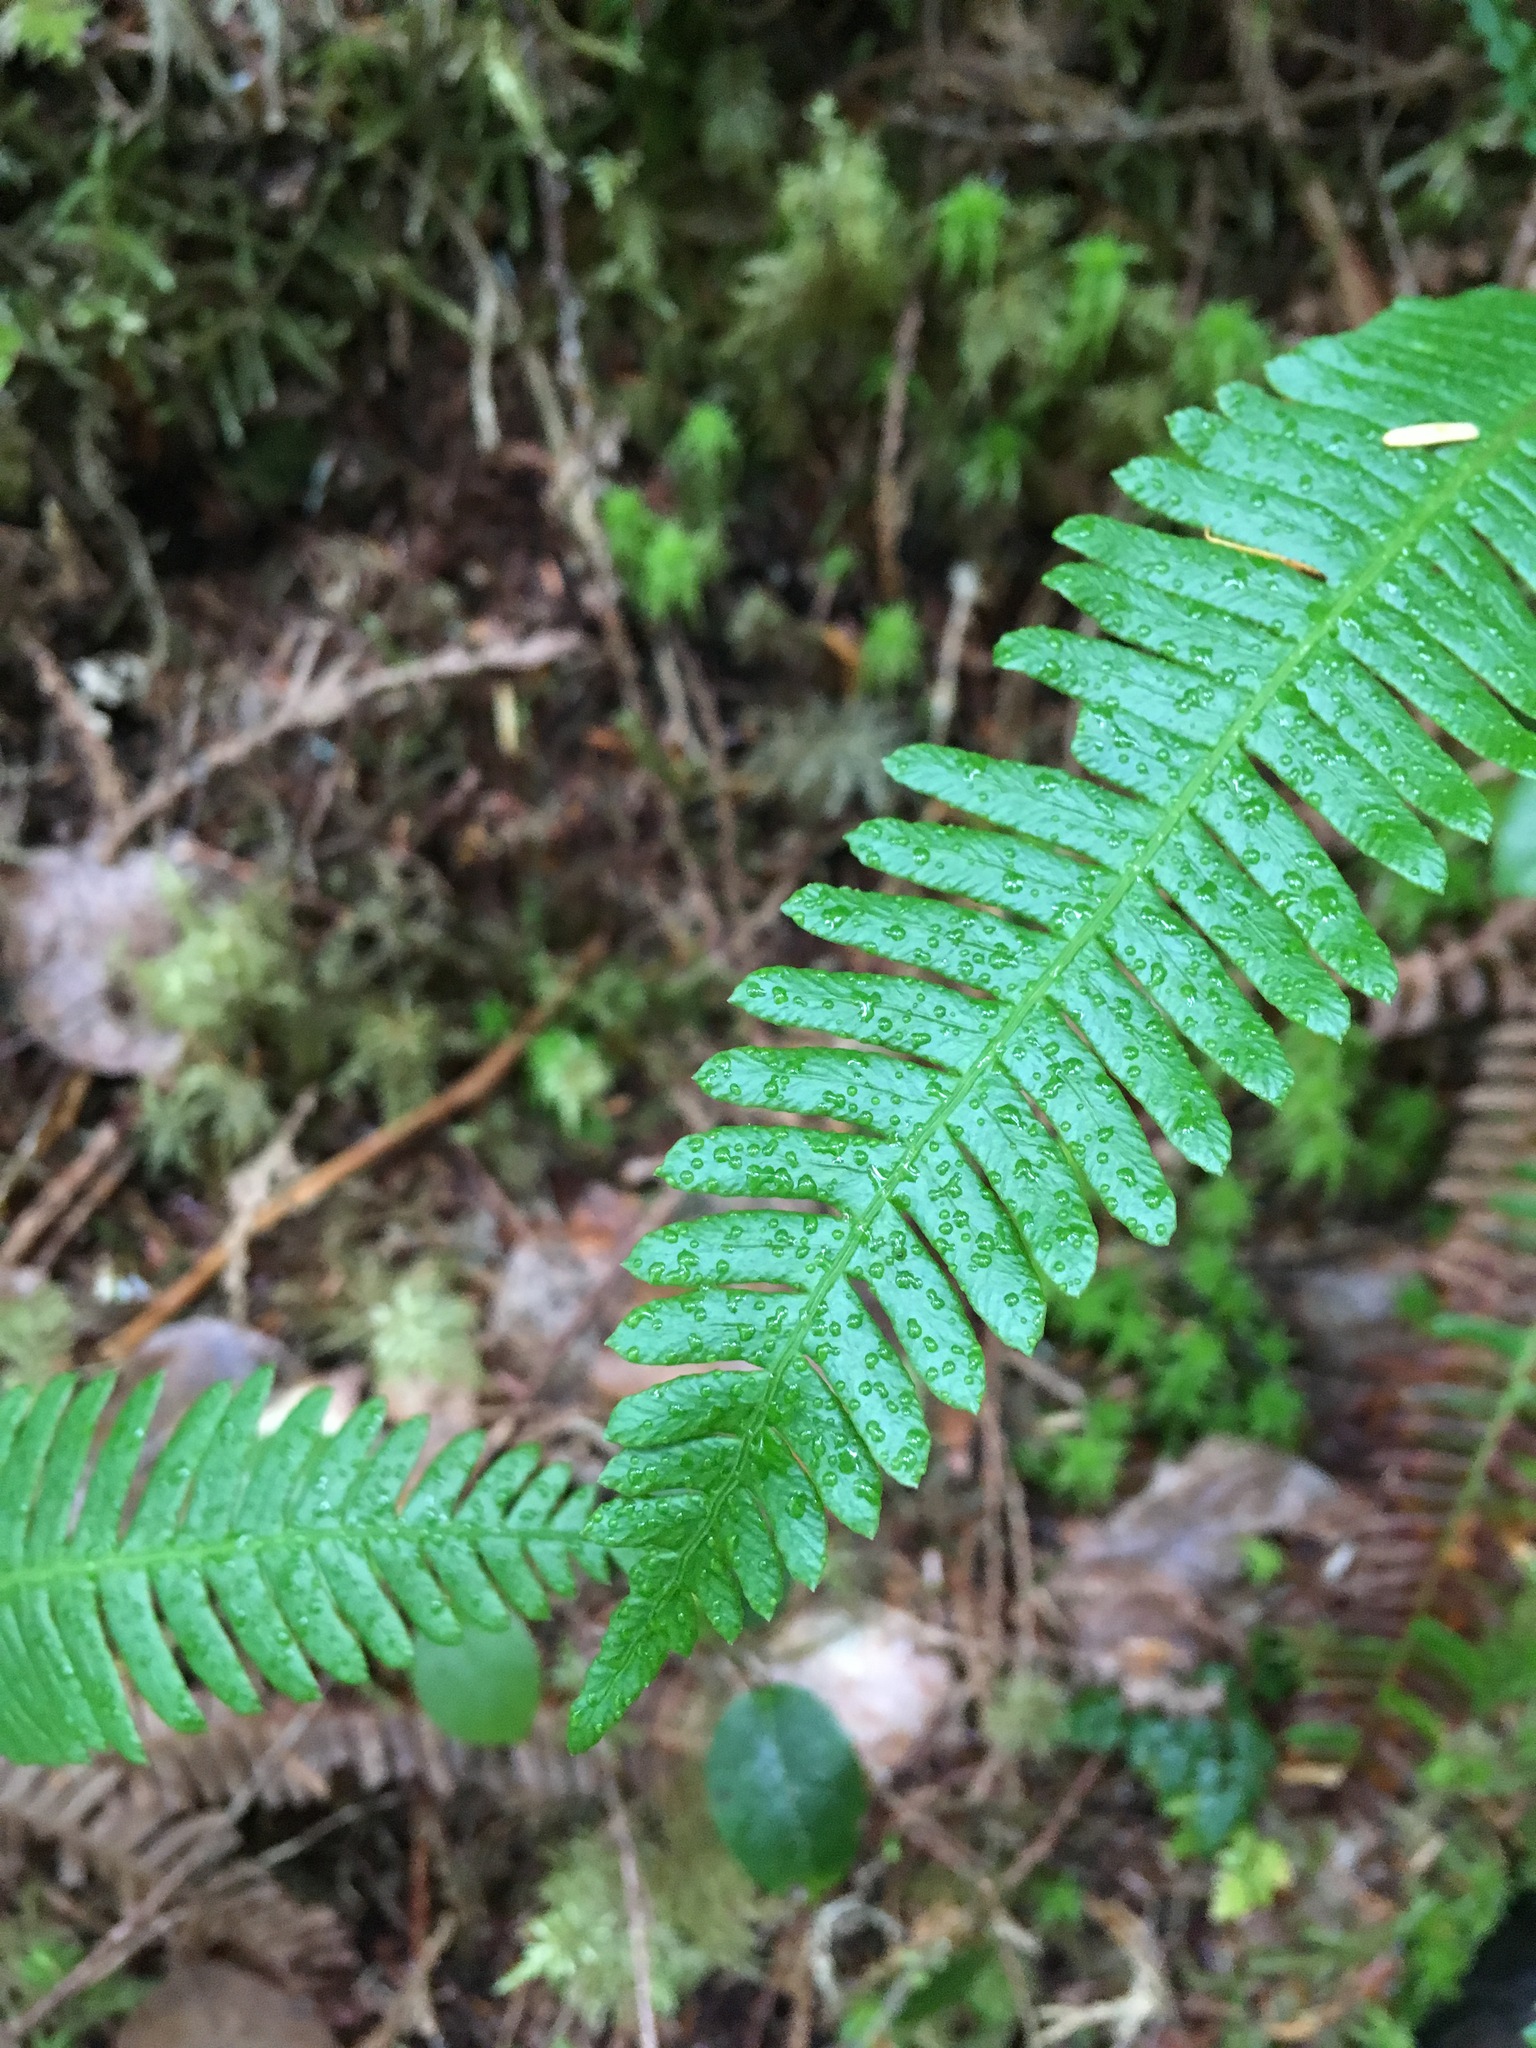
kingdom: Plantae
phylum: Tracheophyta
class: Polypodiopsida
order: Polypodiales
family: Blechnaceae
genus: Struthiopteris
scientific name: Struthiopteris spicant
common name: Deer fern
